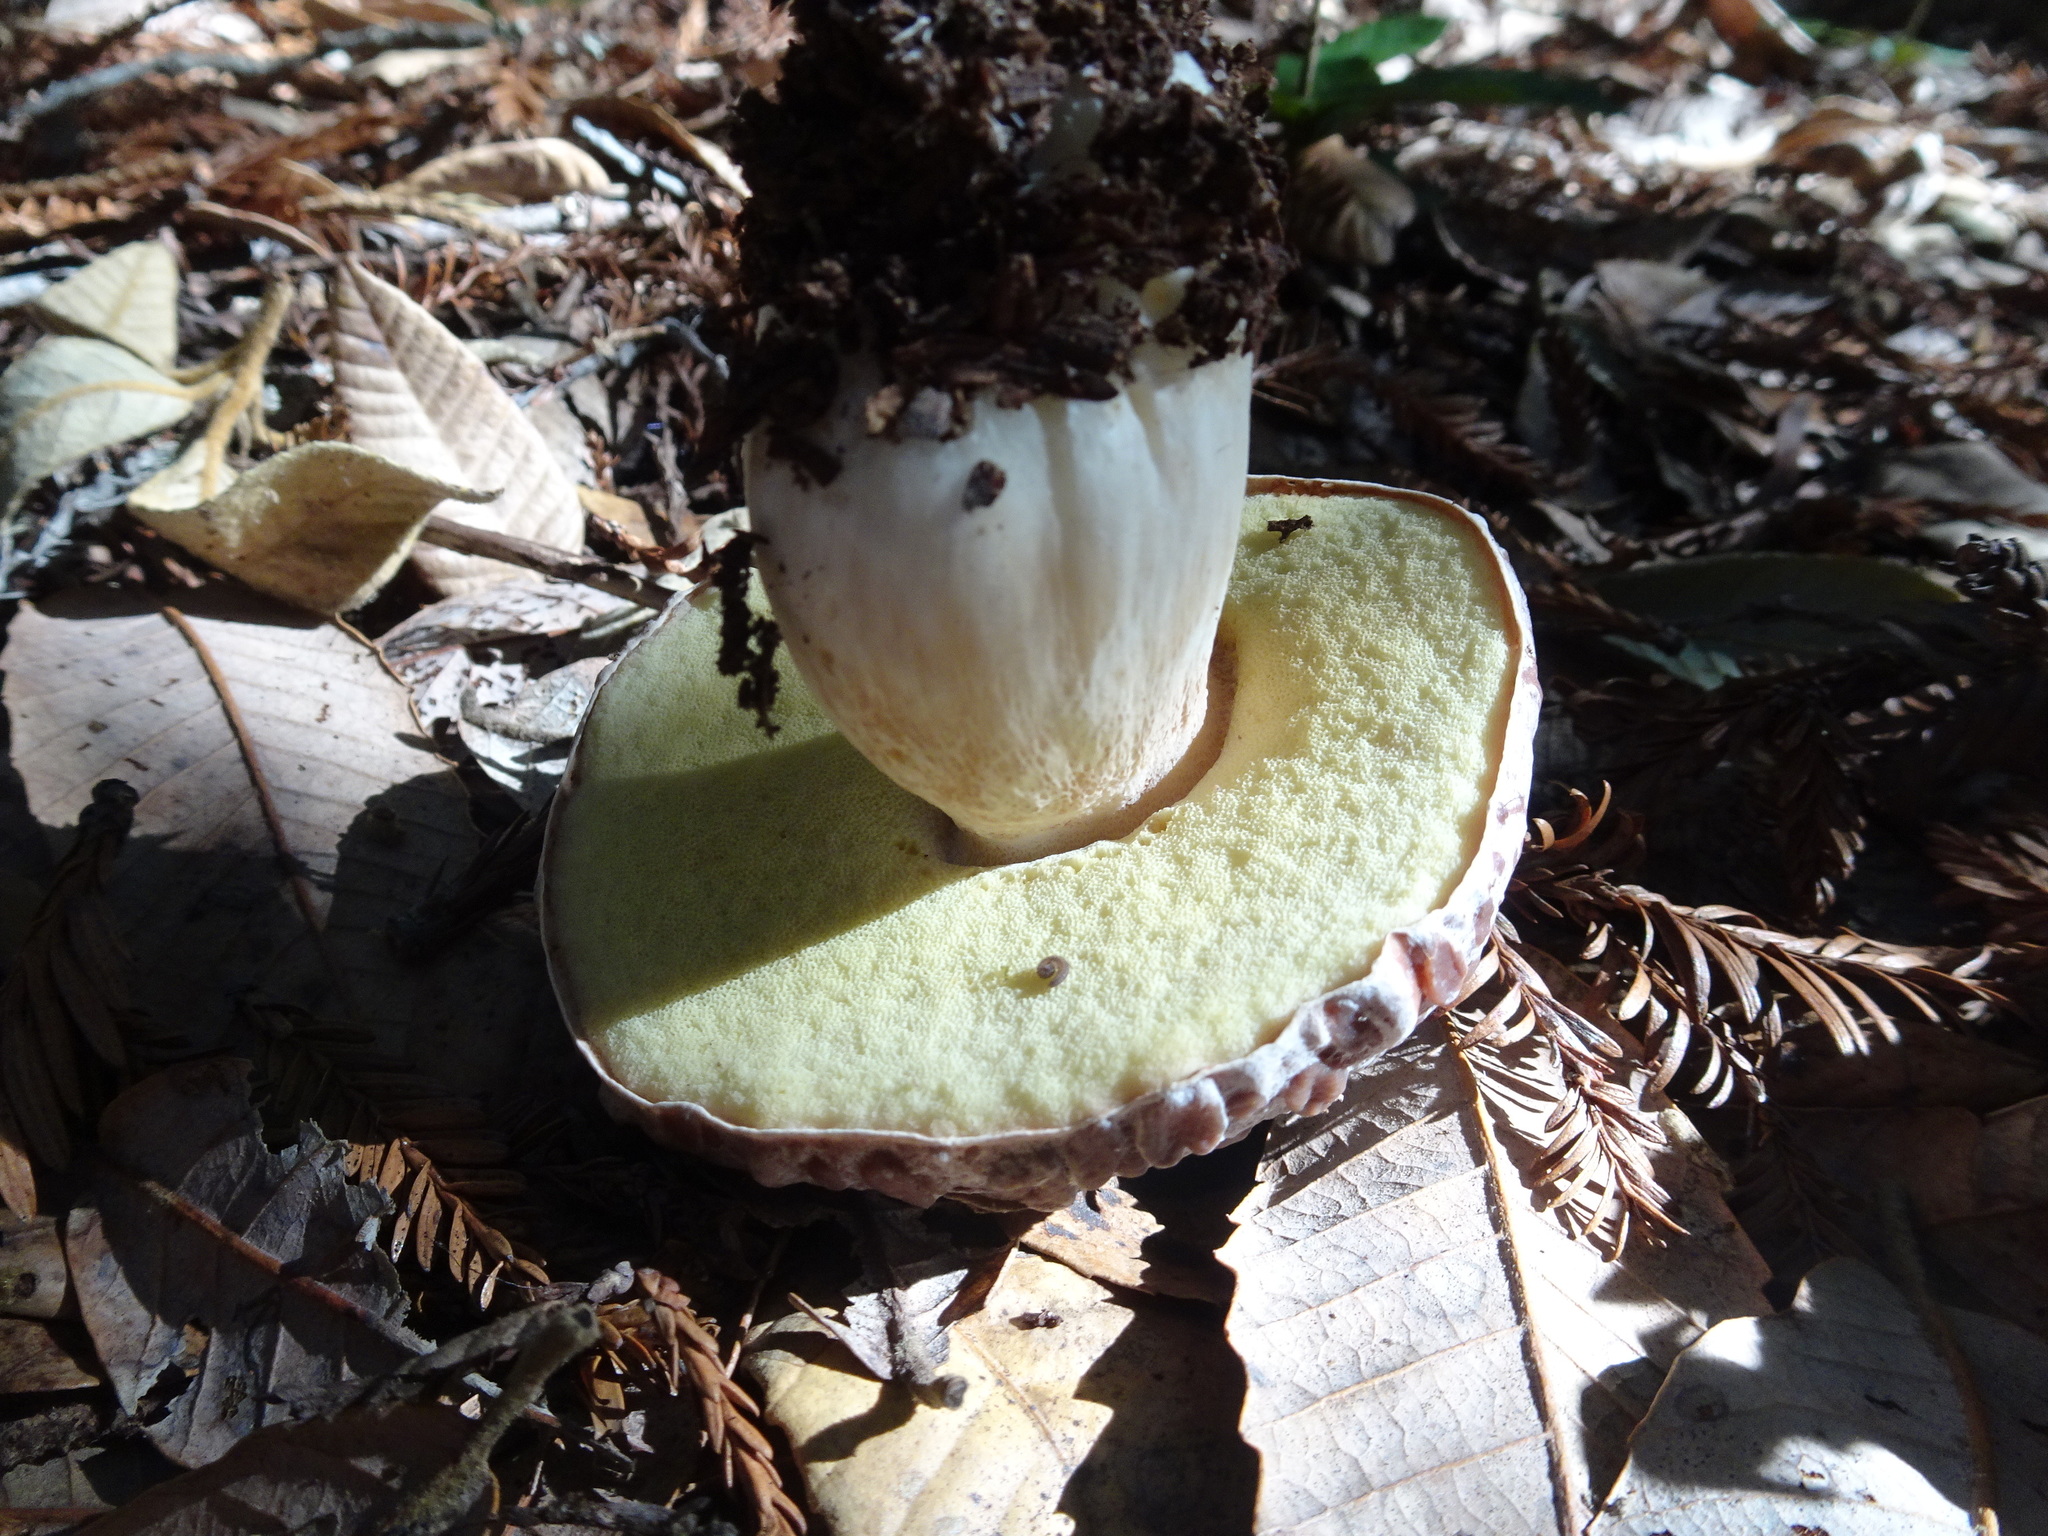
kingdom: Fungi
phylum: Basidiomycota
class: Agaricomycetes
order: Boletales
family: Boletaceae
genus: Boletus
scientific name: Boletus regineus
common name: Queen bolete
